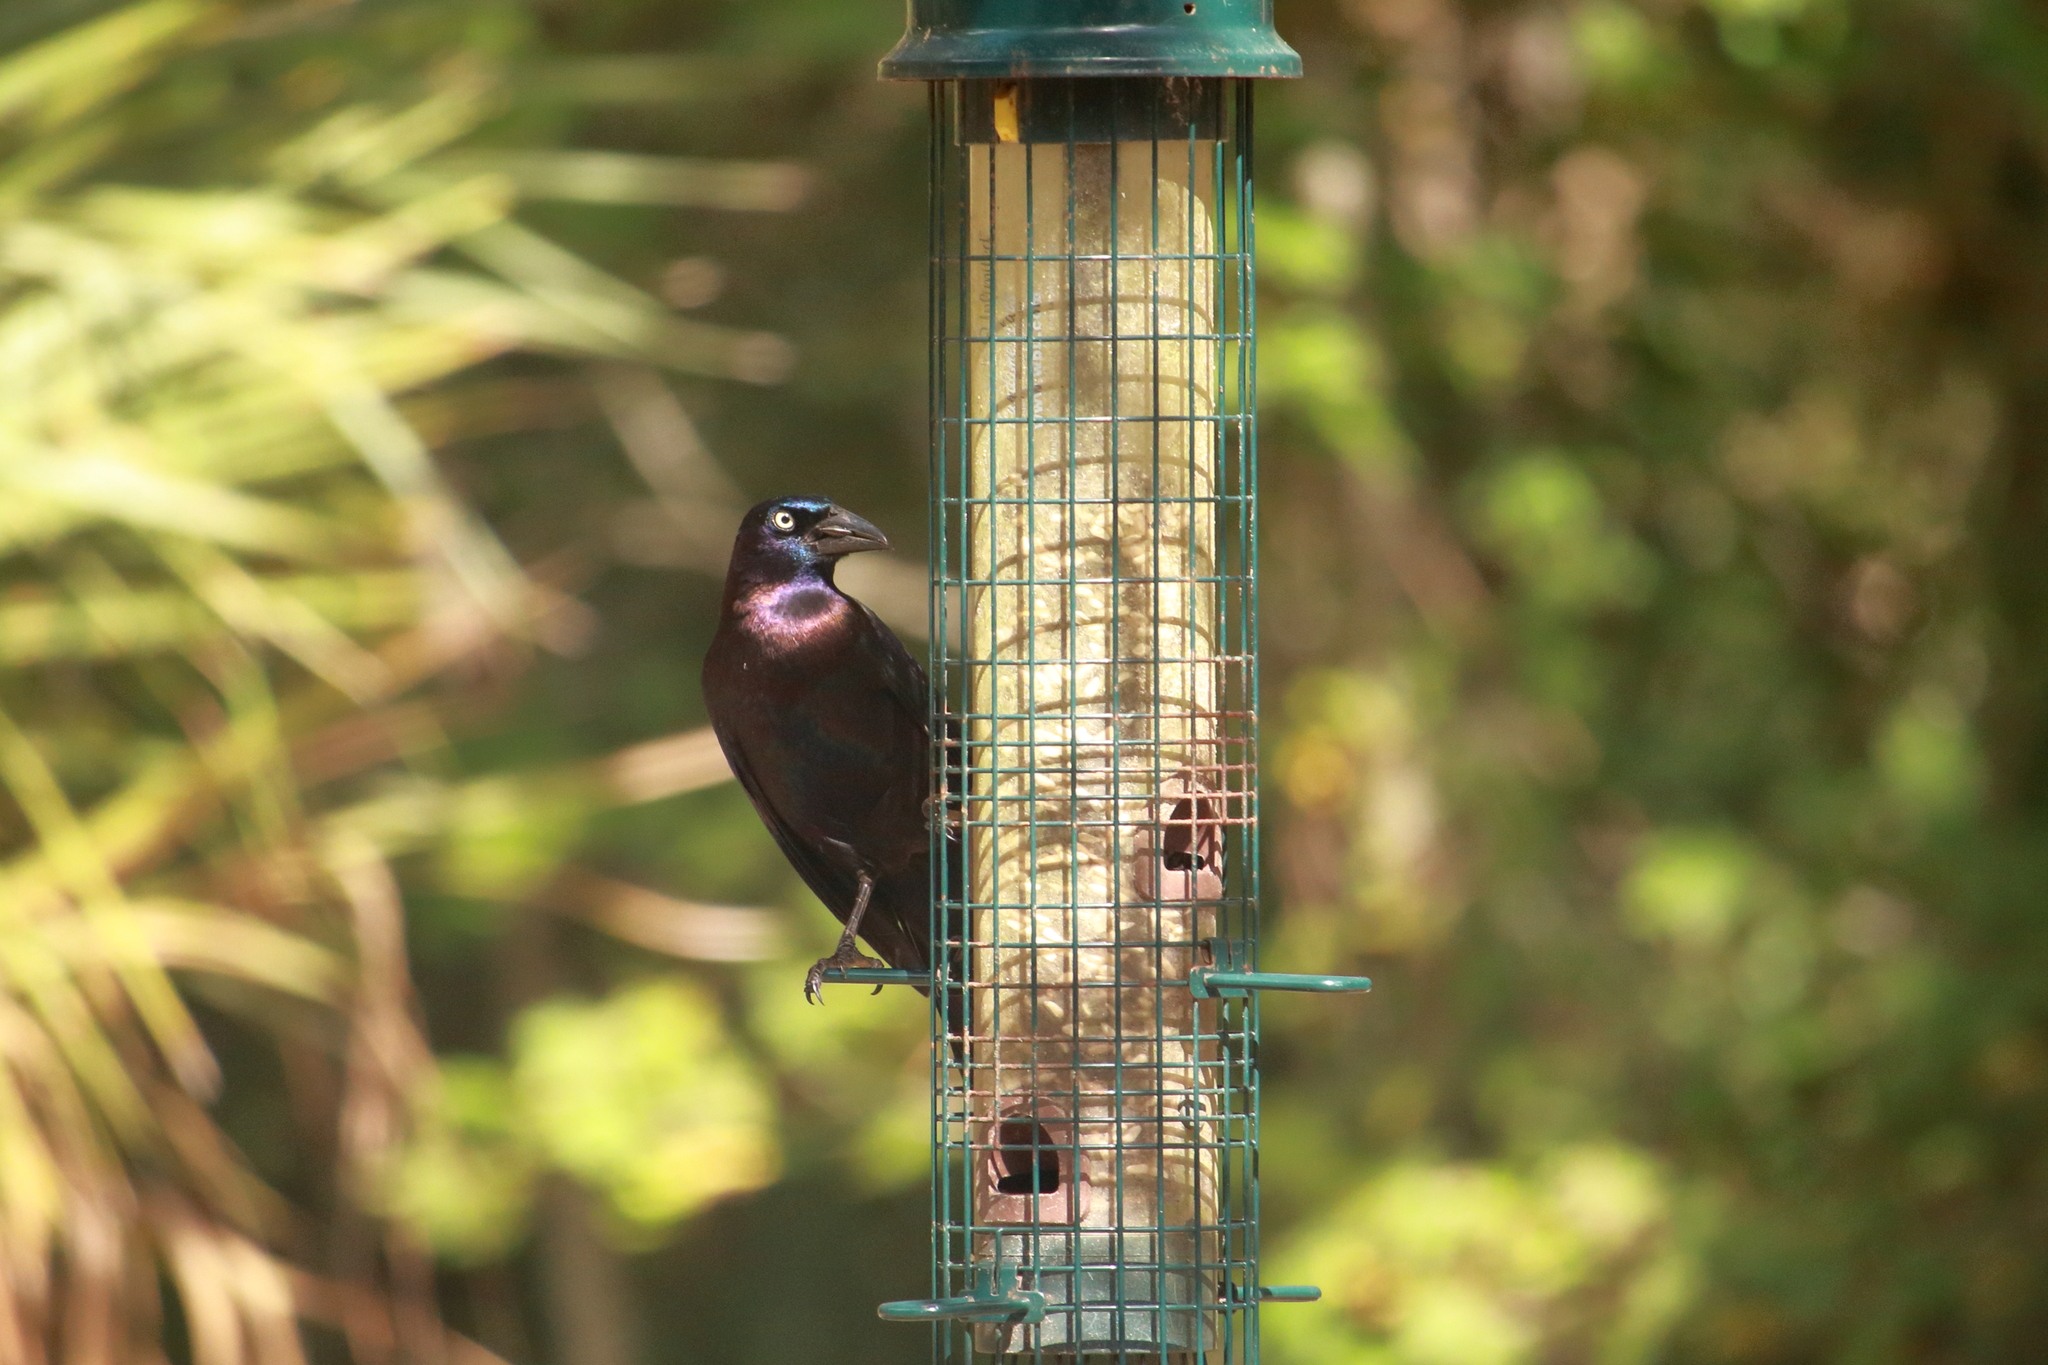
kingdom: Animalia
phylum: Chordata
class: Aves
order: Passeriformes
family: Icteridae
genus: Quiscalus
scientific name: Quiscalus quiscula
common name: Common grackle
